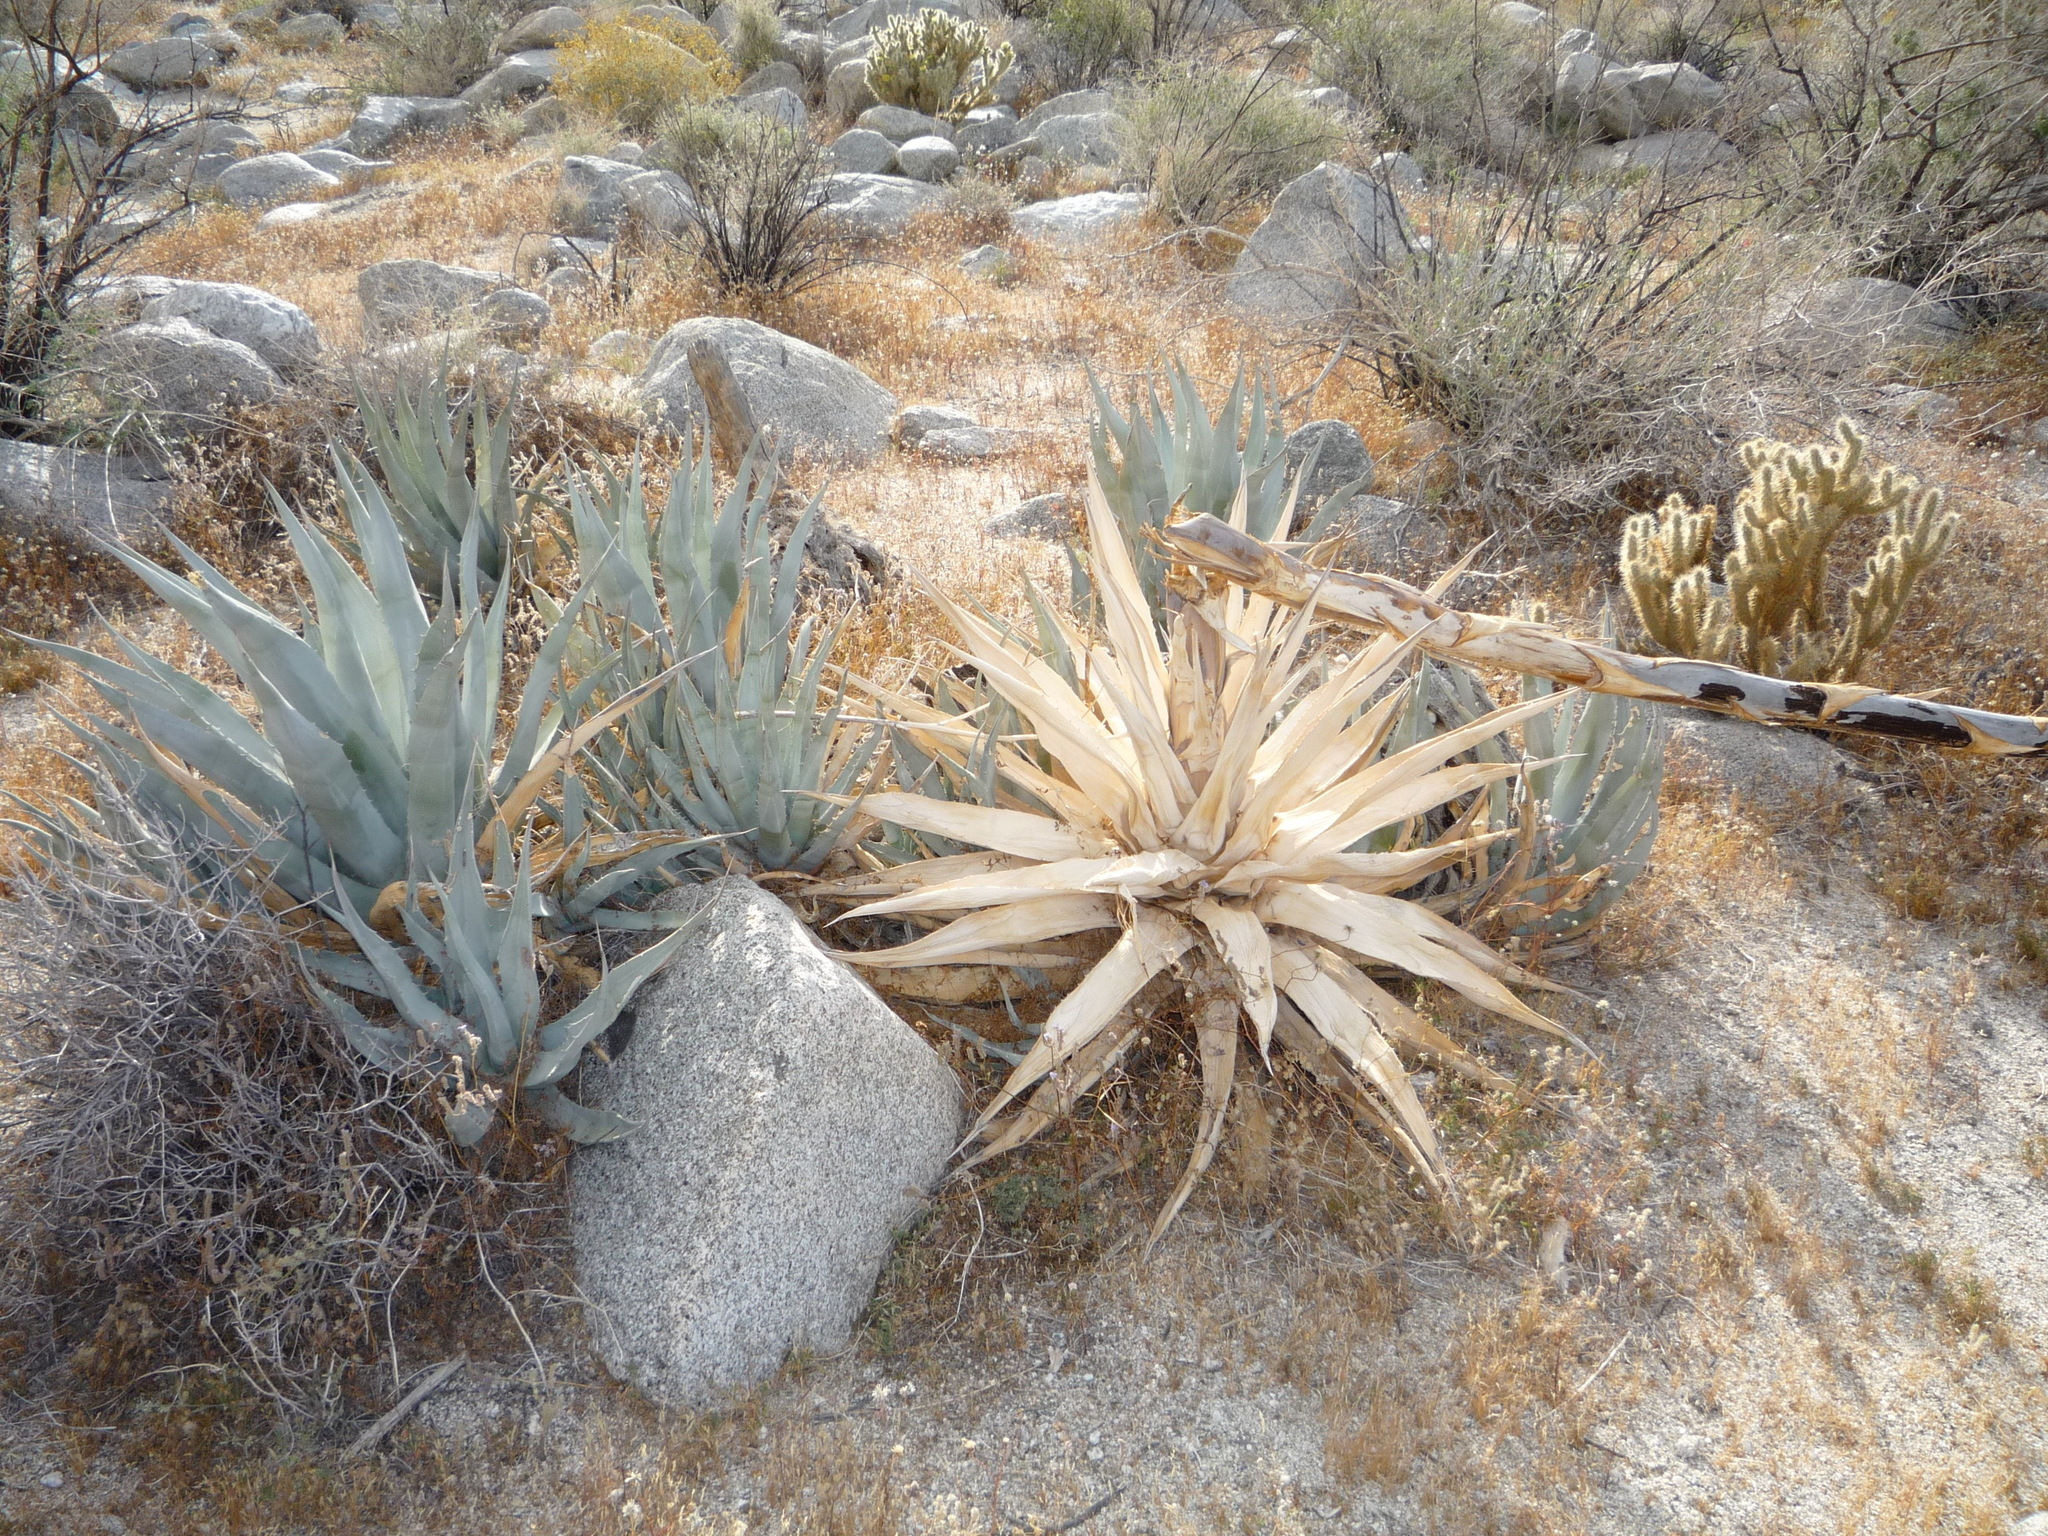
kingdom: Plantae
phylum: Tracheophyta
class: Liliopsida
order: Asparagales
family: Asparagaceae
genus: Agave
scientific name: Agave deserti
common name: Desert agave
